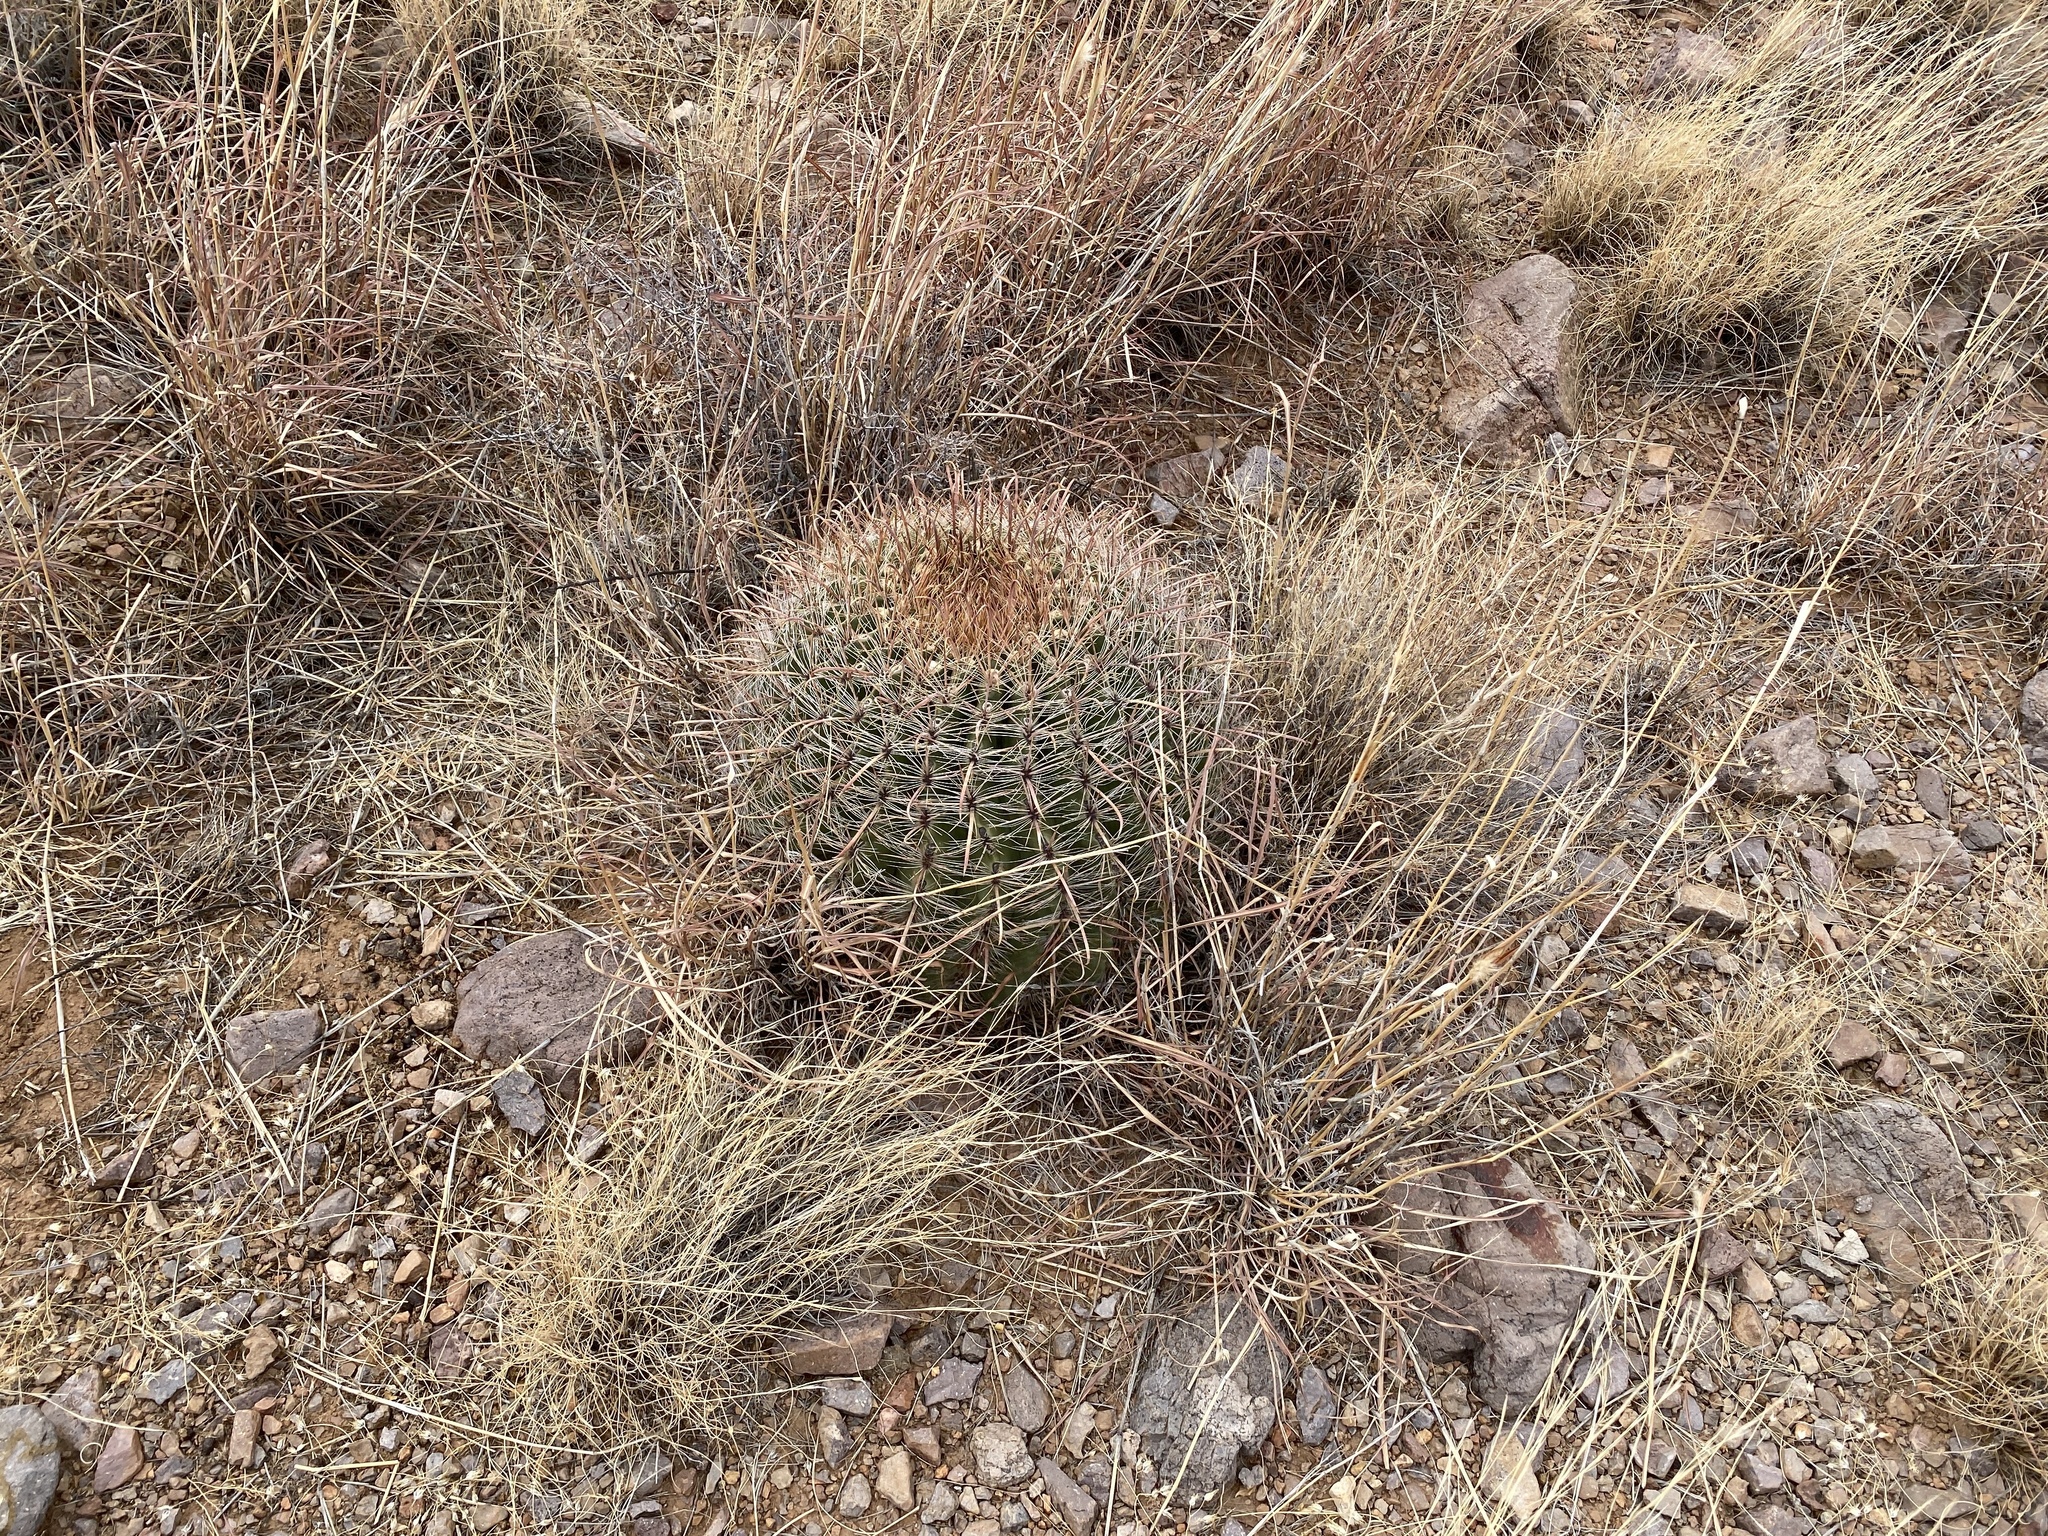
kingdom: Plantae
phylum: Tracheophyta
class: Magnoliopsida
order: Caryophyllales
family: Cactaceae
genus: Ferocactus
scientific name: Ferocactus wislizeni
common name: Candy barrel cactus
